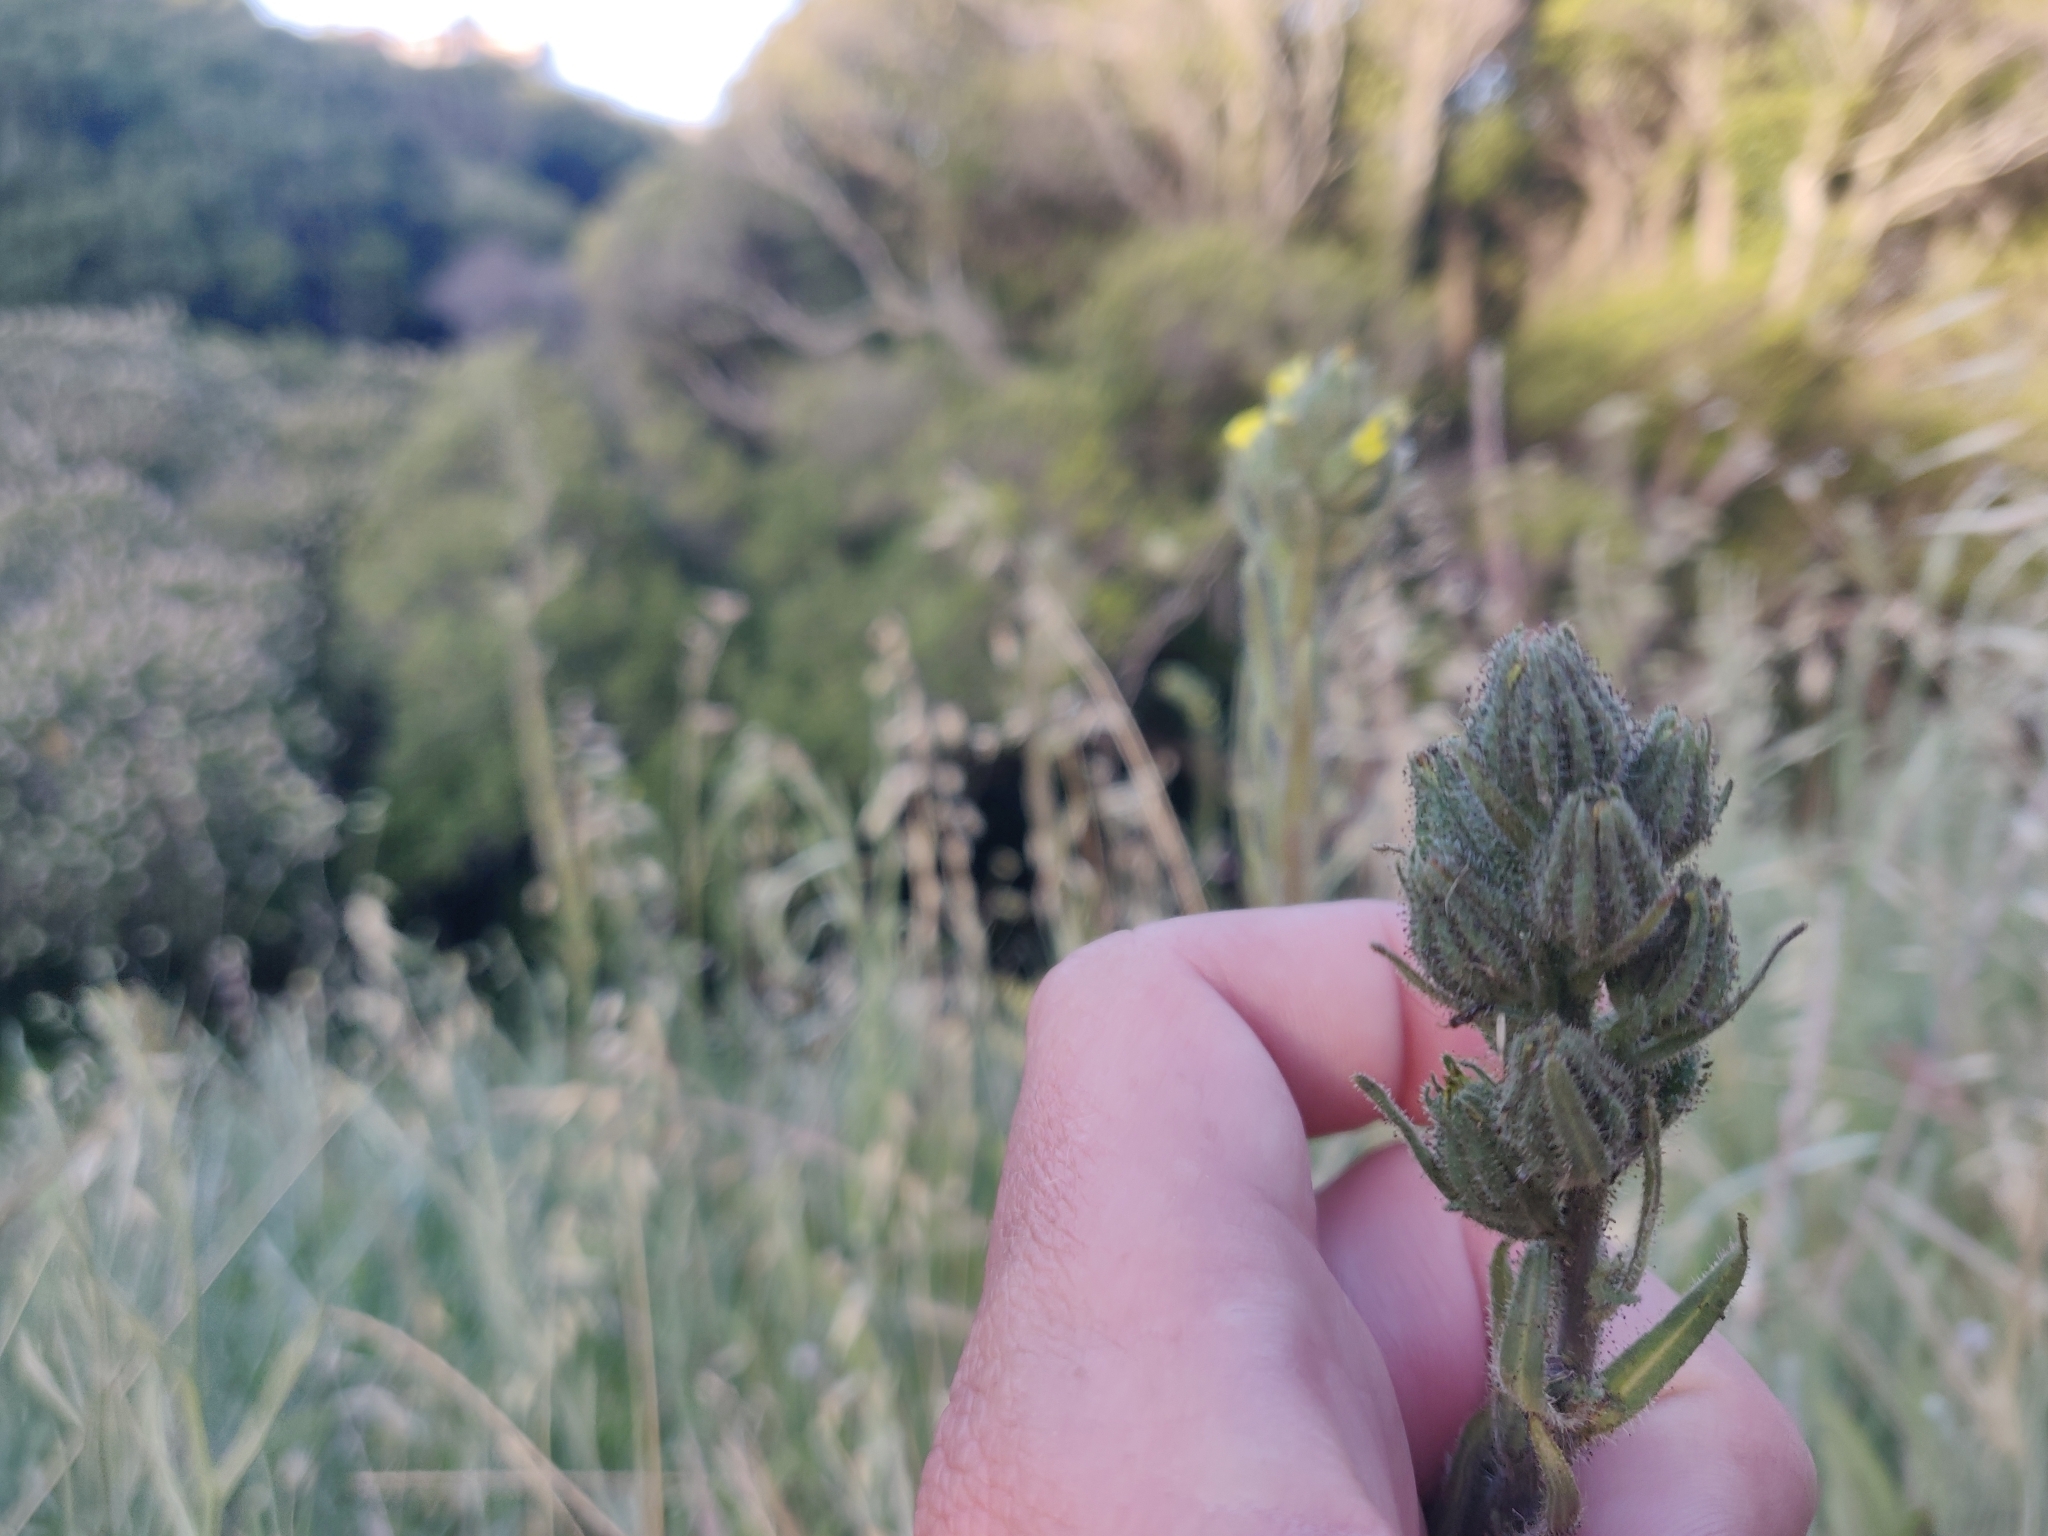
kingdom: Plantae
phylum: Tracheophyta
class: Magnoliopsida
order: Asterales
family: Asteraceae
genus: Madia
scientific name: Madia sativa
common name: Coast tarweed
